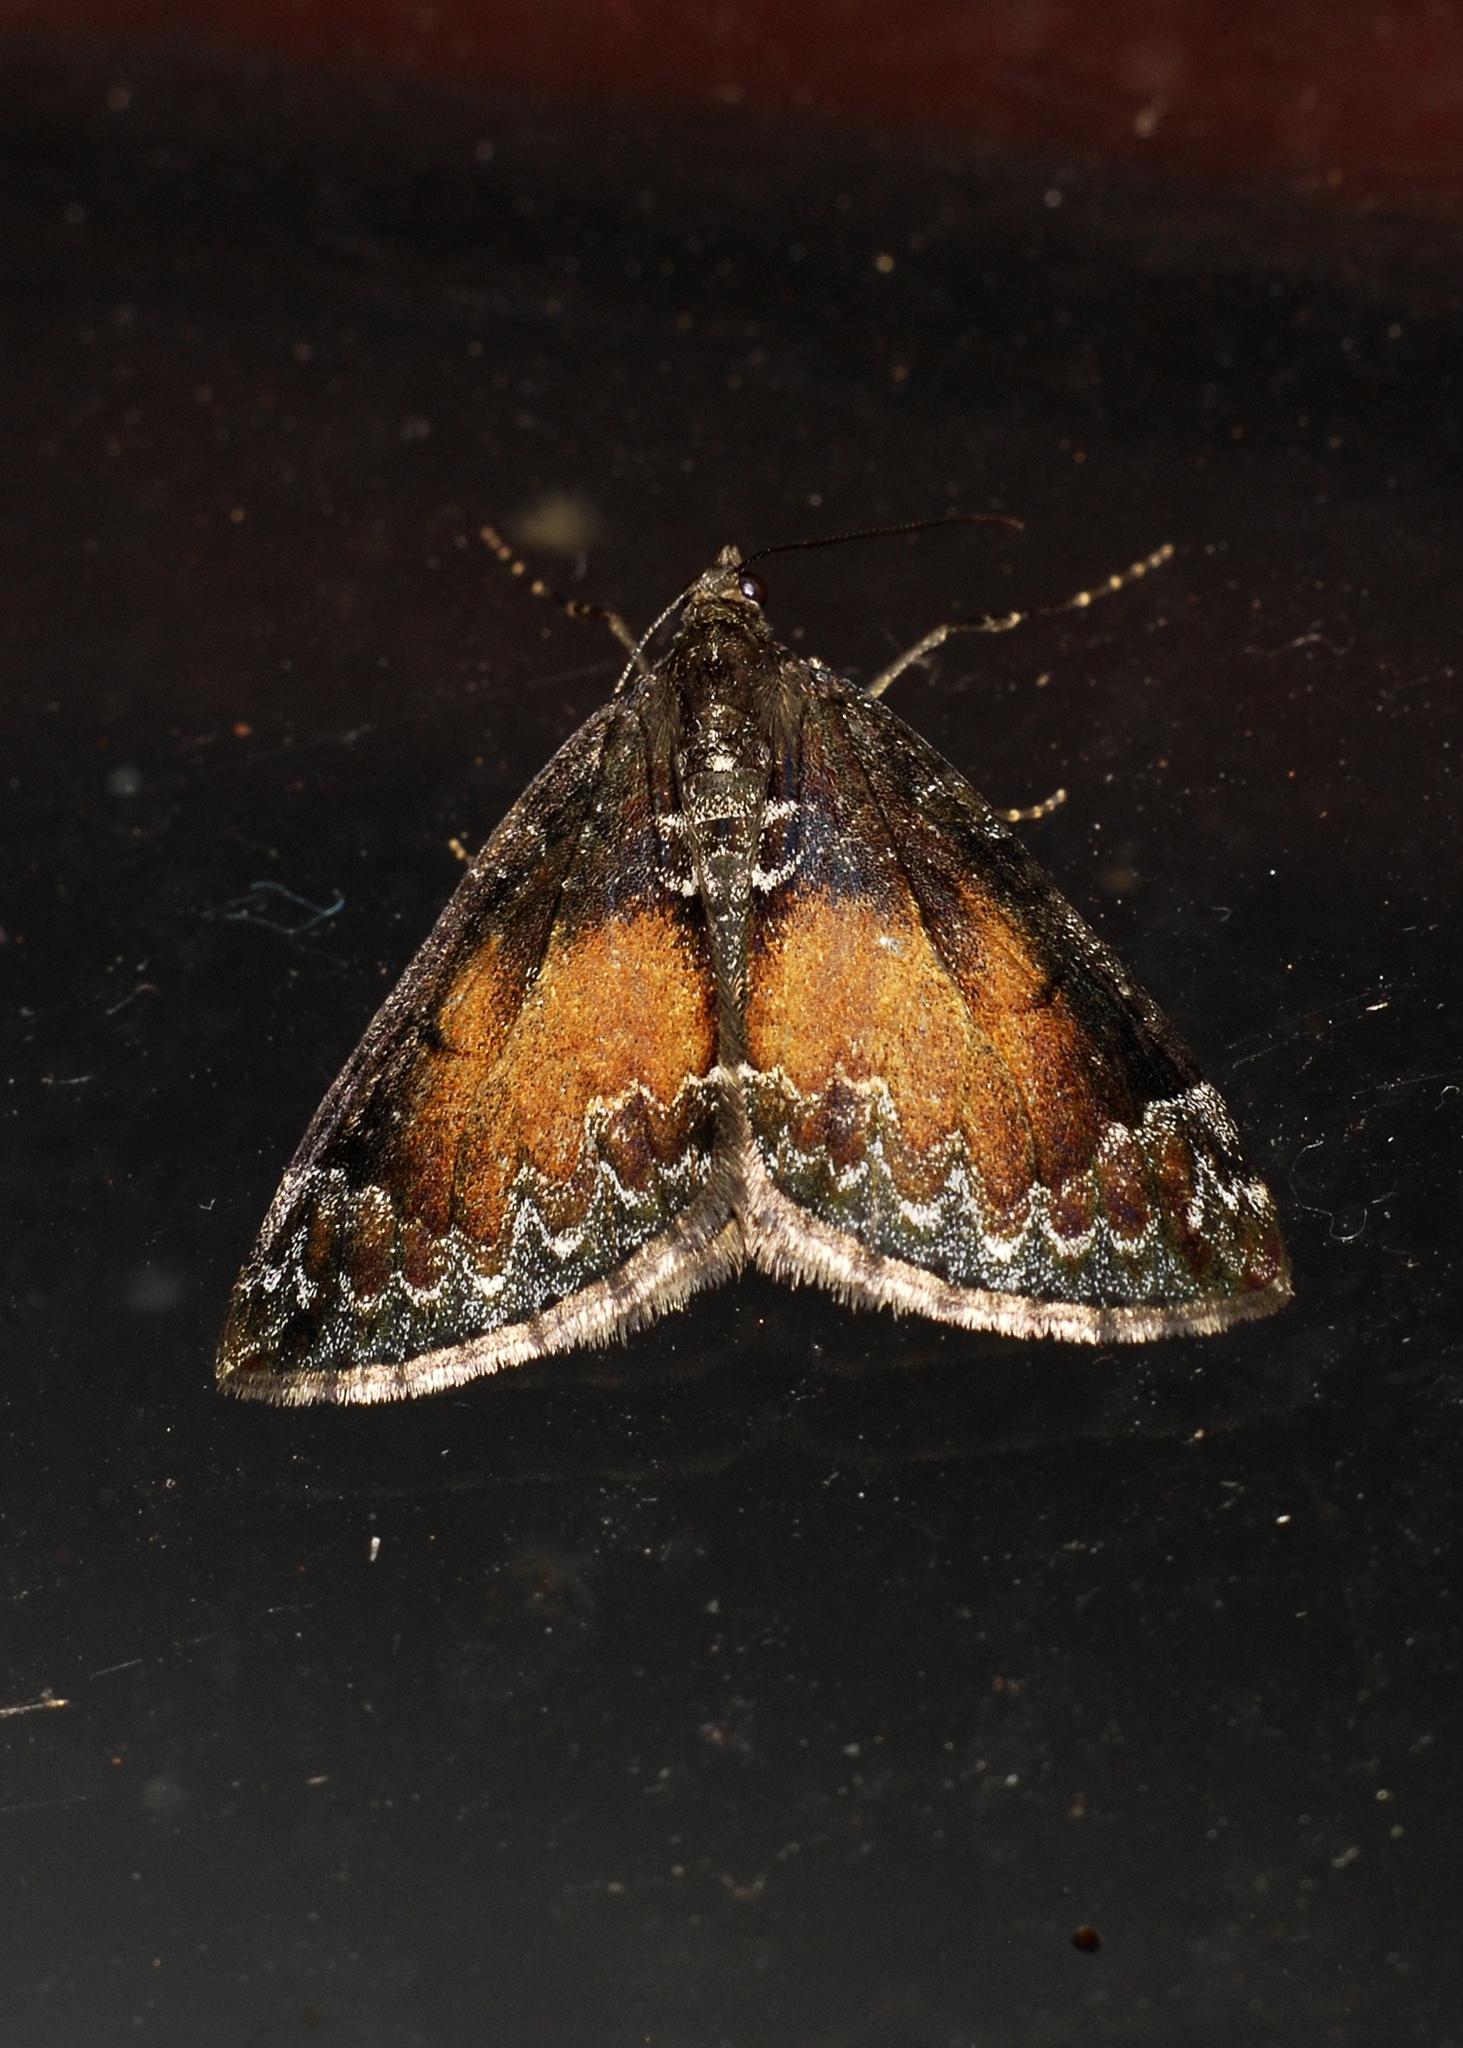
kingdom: Animalia
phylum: Arthropoda
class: Insecta
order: Lepidoptera
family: Geometridae
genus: Dysstroma
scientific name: Dysstroma truncata
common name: Common marbled carpet
